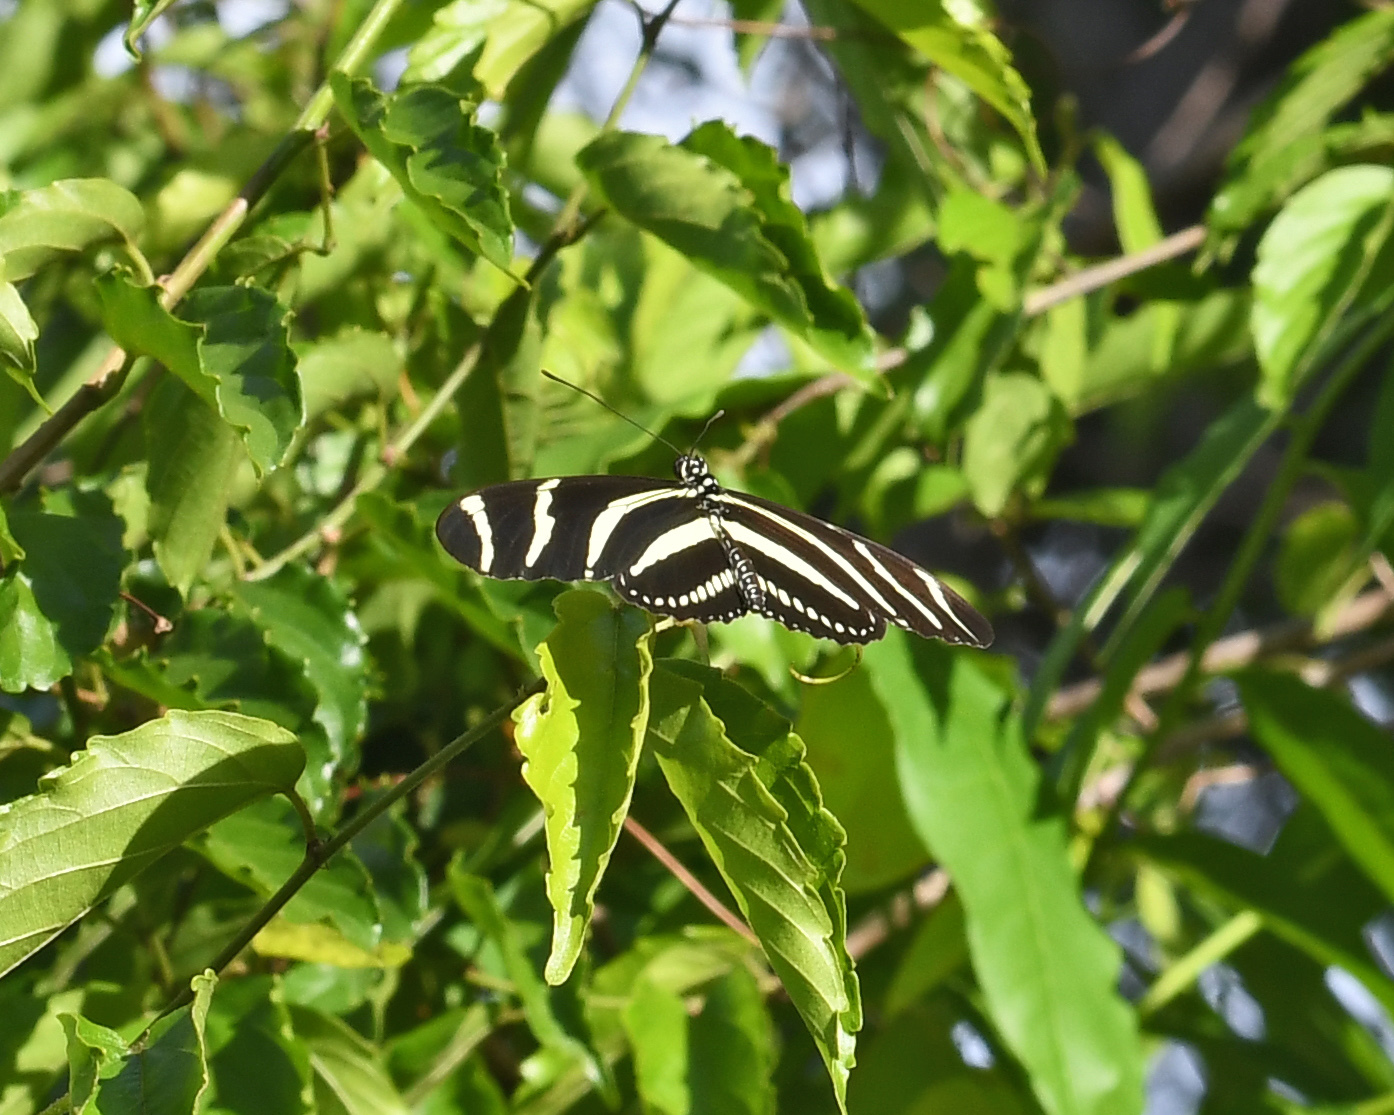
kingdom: Animalia
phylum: Arthropoda
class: Insecta
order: Lepidoptera
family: Nymphalidae
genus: Heliconius
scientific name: Heliconius charithonia
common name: Zebra long wing
